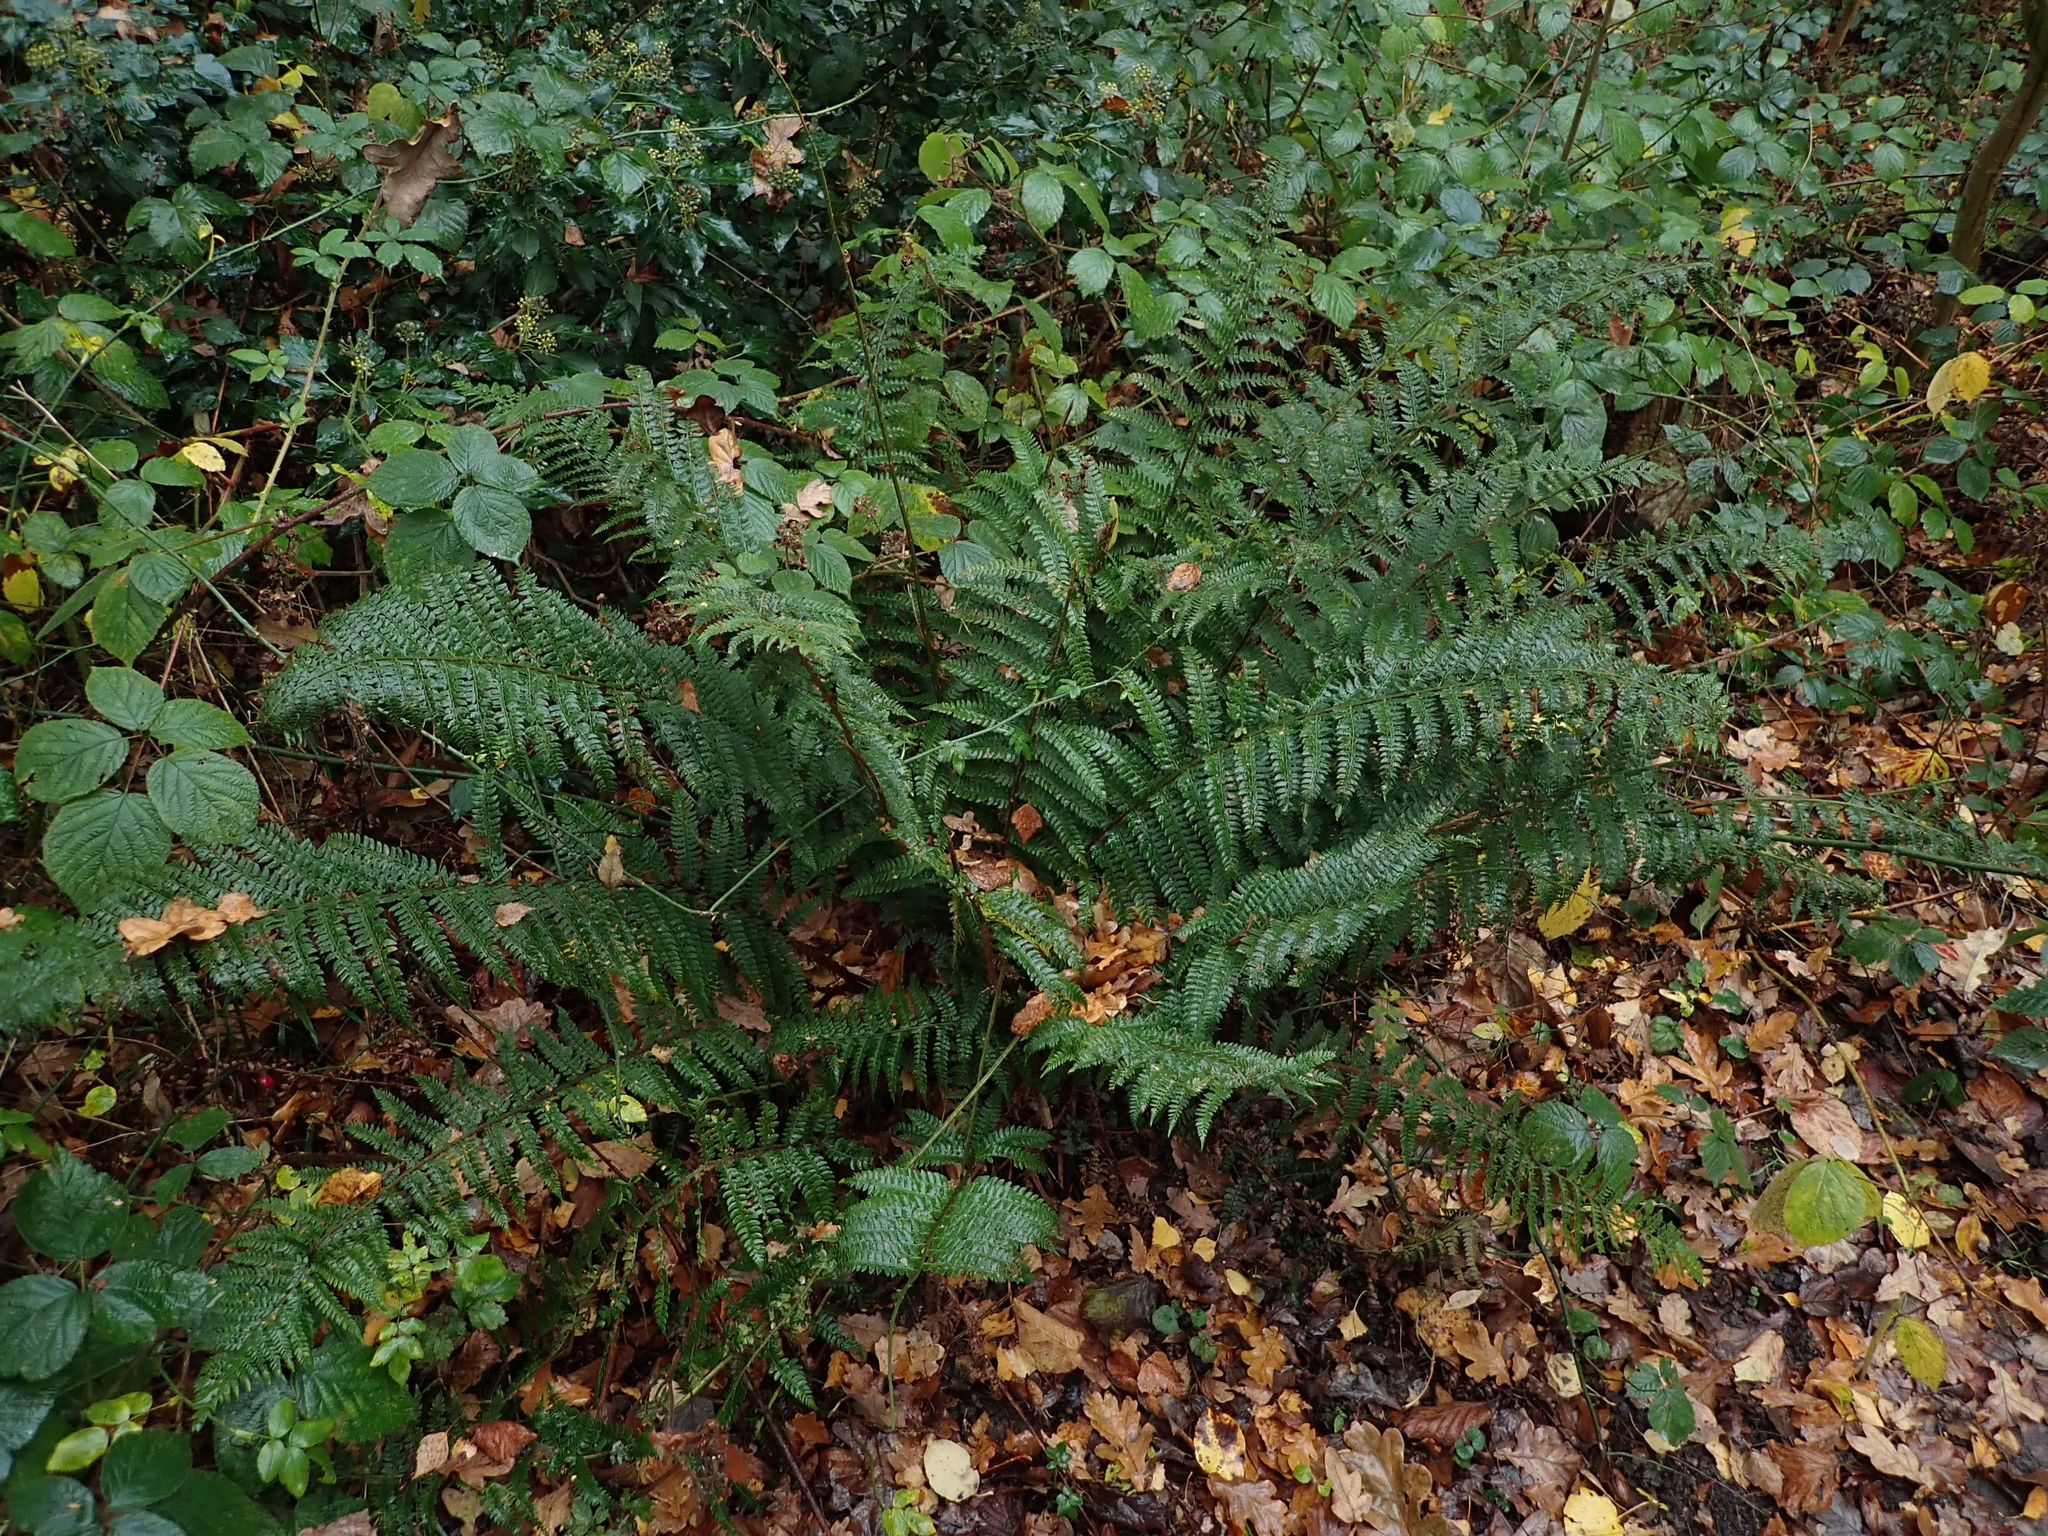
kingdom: Plantae
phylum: Tracheophyta
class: Polypodiopsida
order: Polypodiales
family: Dryopteridaceae
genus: Polystichum
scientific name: Polystichum setiferum
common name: Soft shield-fern
